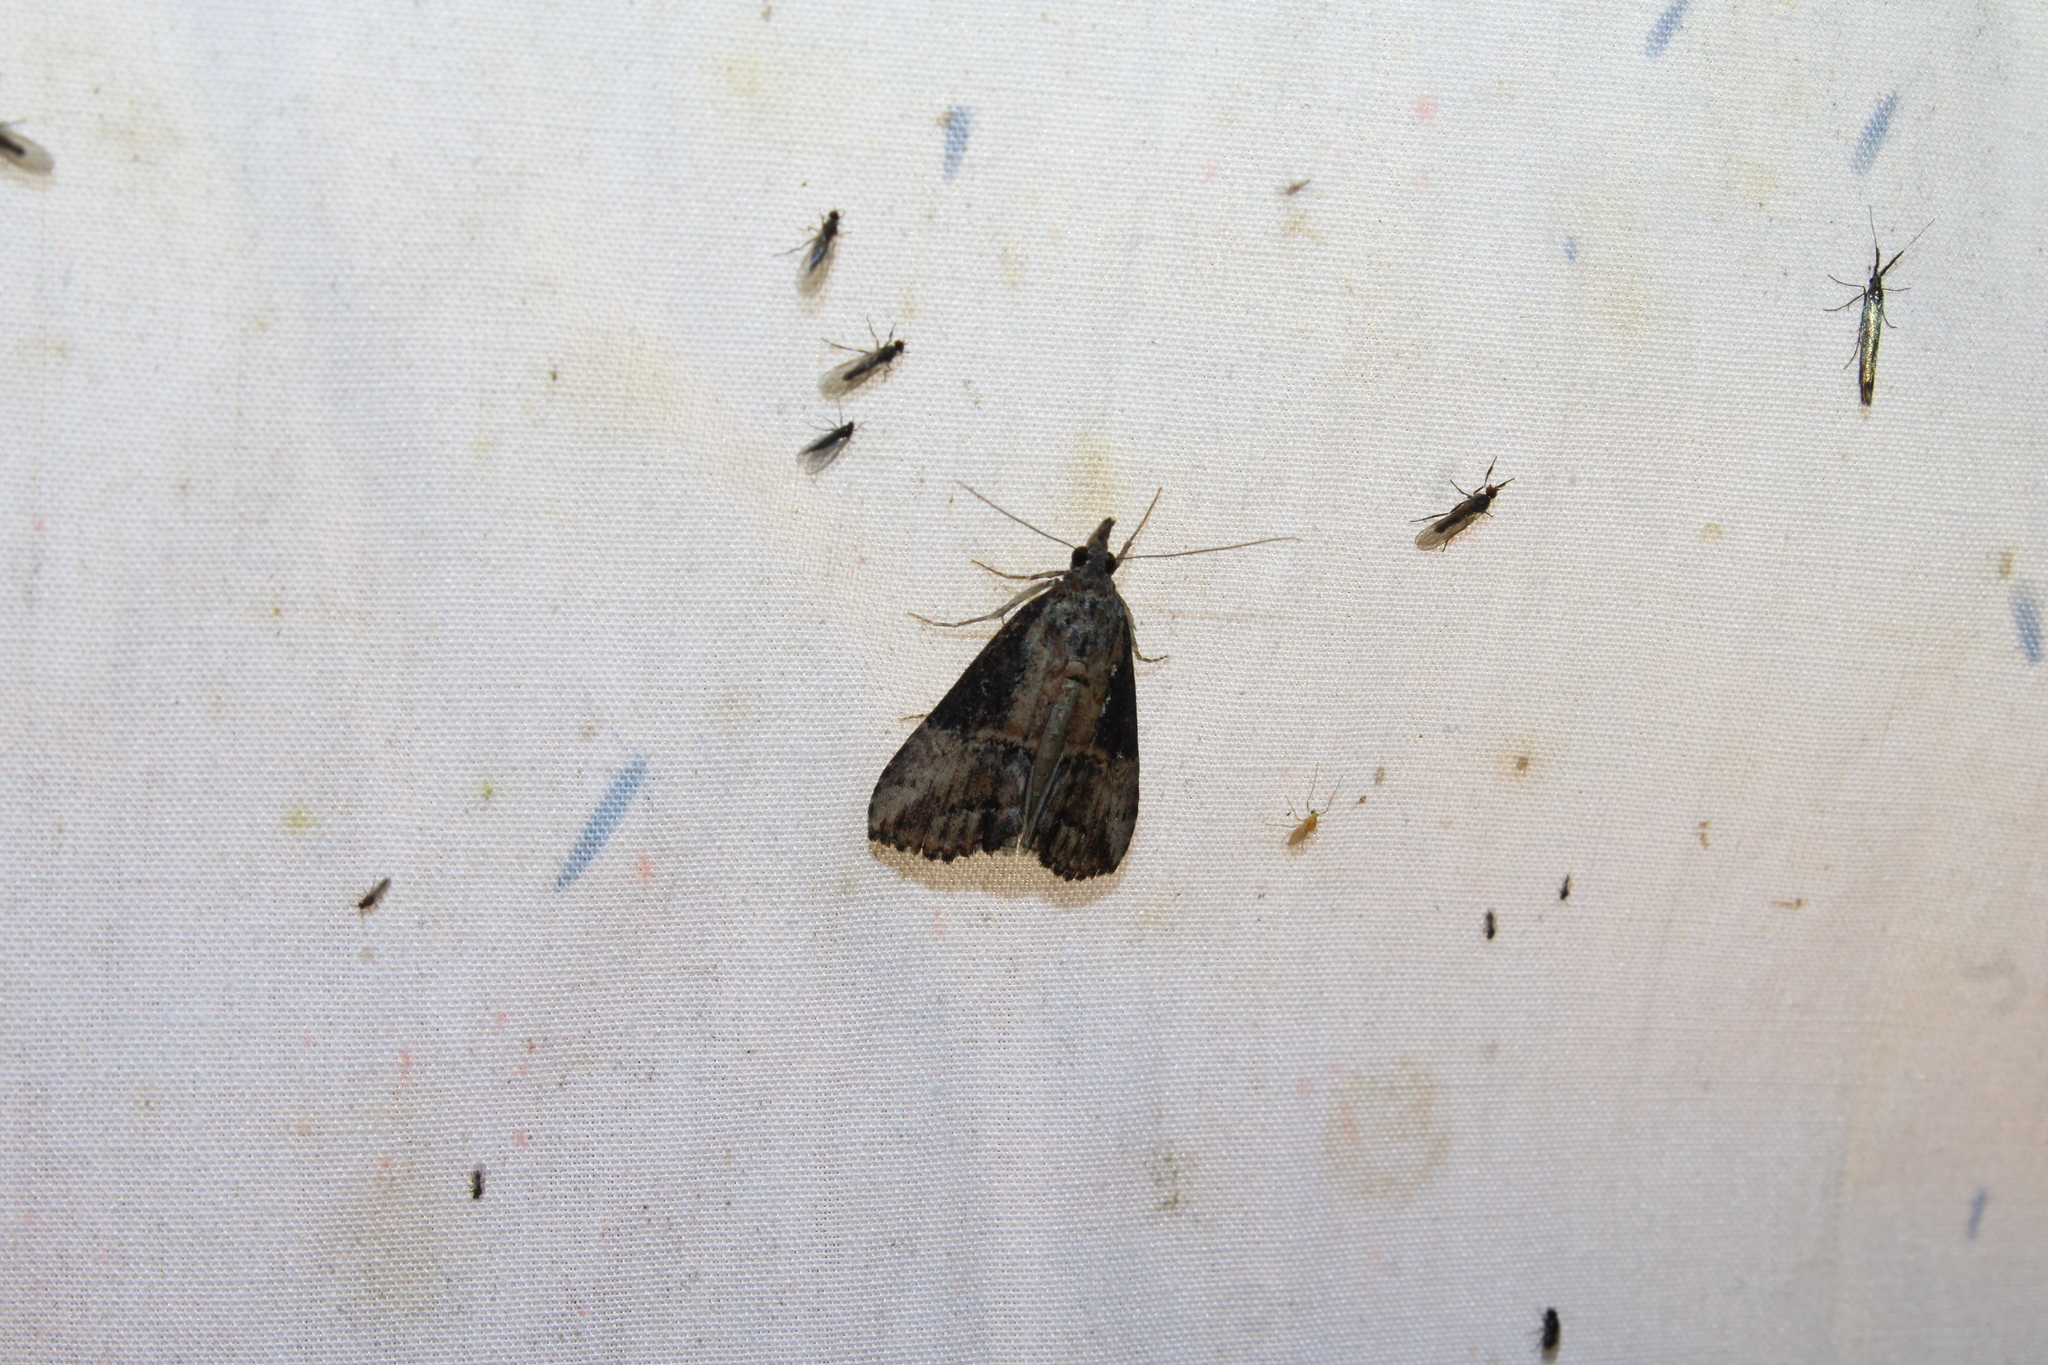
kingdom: Animalia
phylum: Arthropoda
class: Insecta
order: Lepidoptera
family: Erebidae
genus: Hypena
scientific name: Hypena scabra
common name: Green cloverworm
